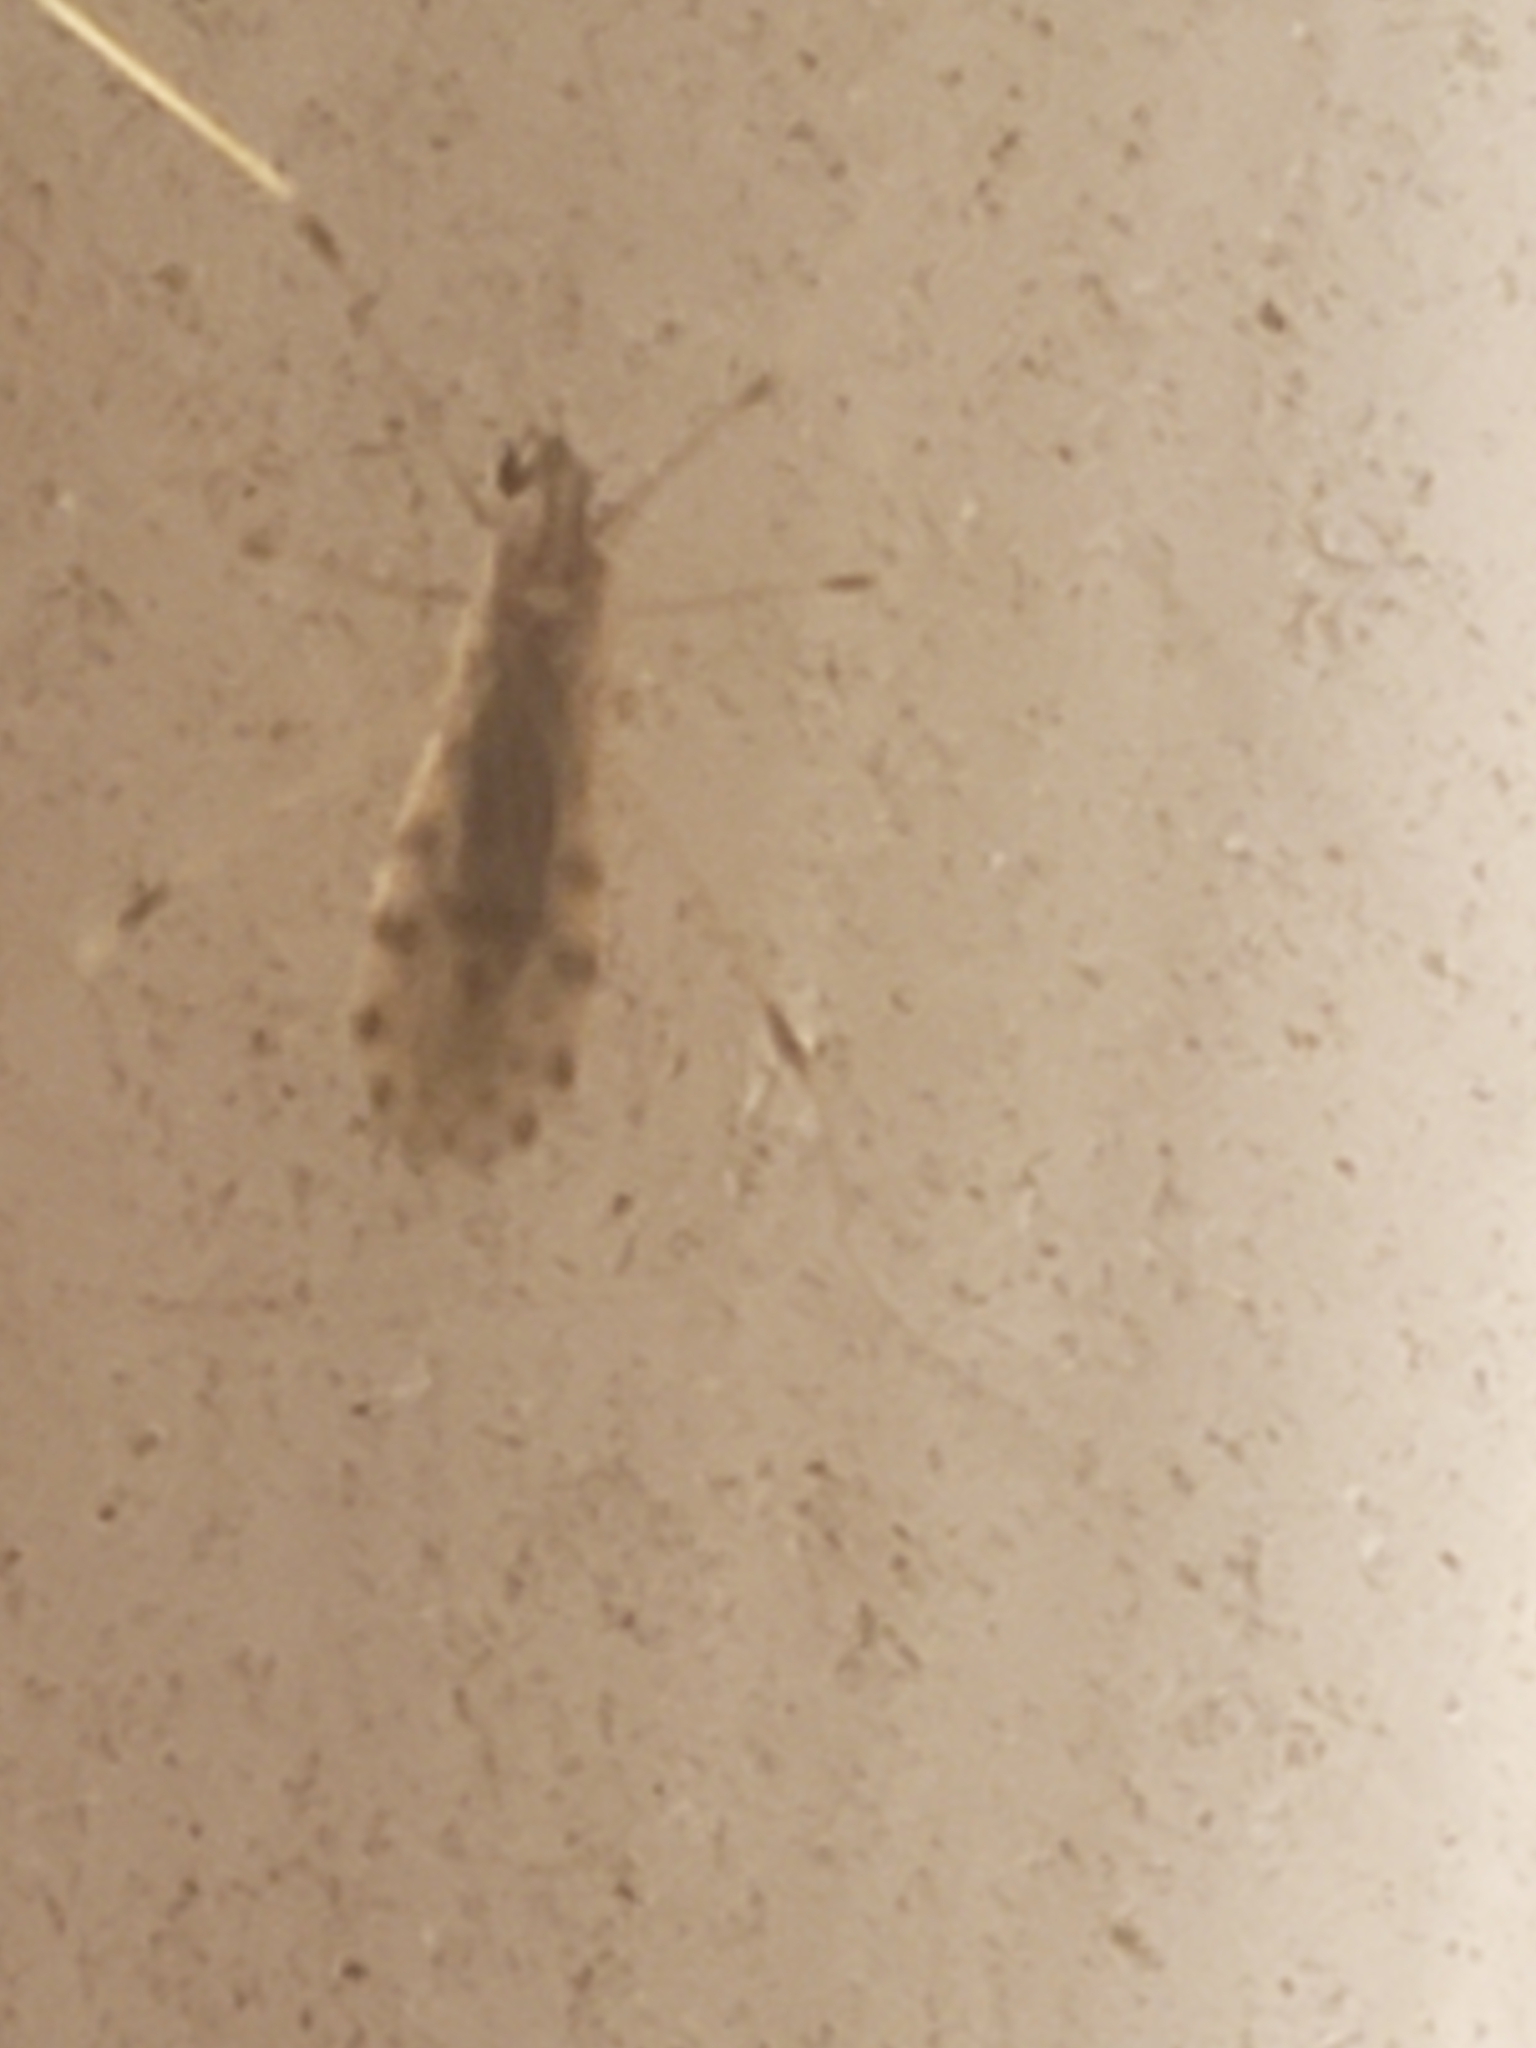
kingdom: Animalia
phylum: Arthropoda
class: Insecta
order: Diptera
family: Limoniidae
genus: Erioptera
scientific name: Erioptera parva
